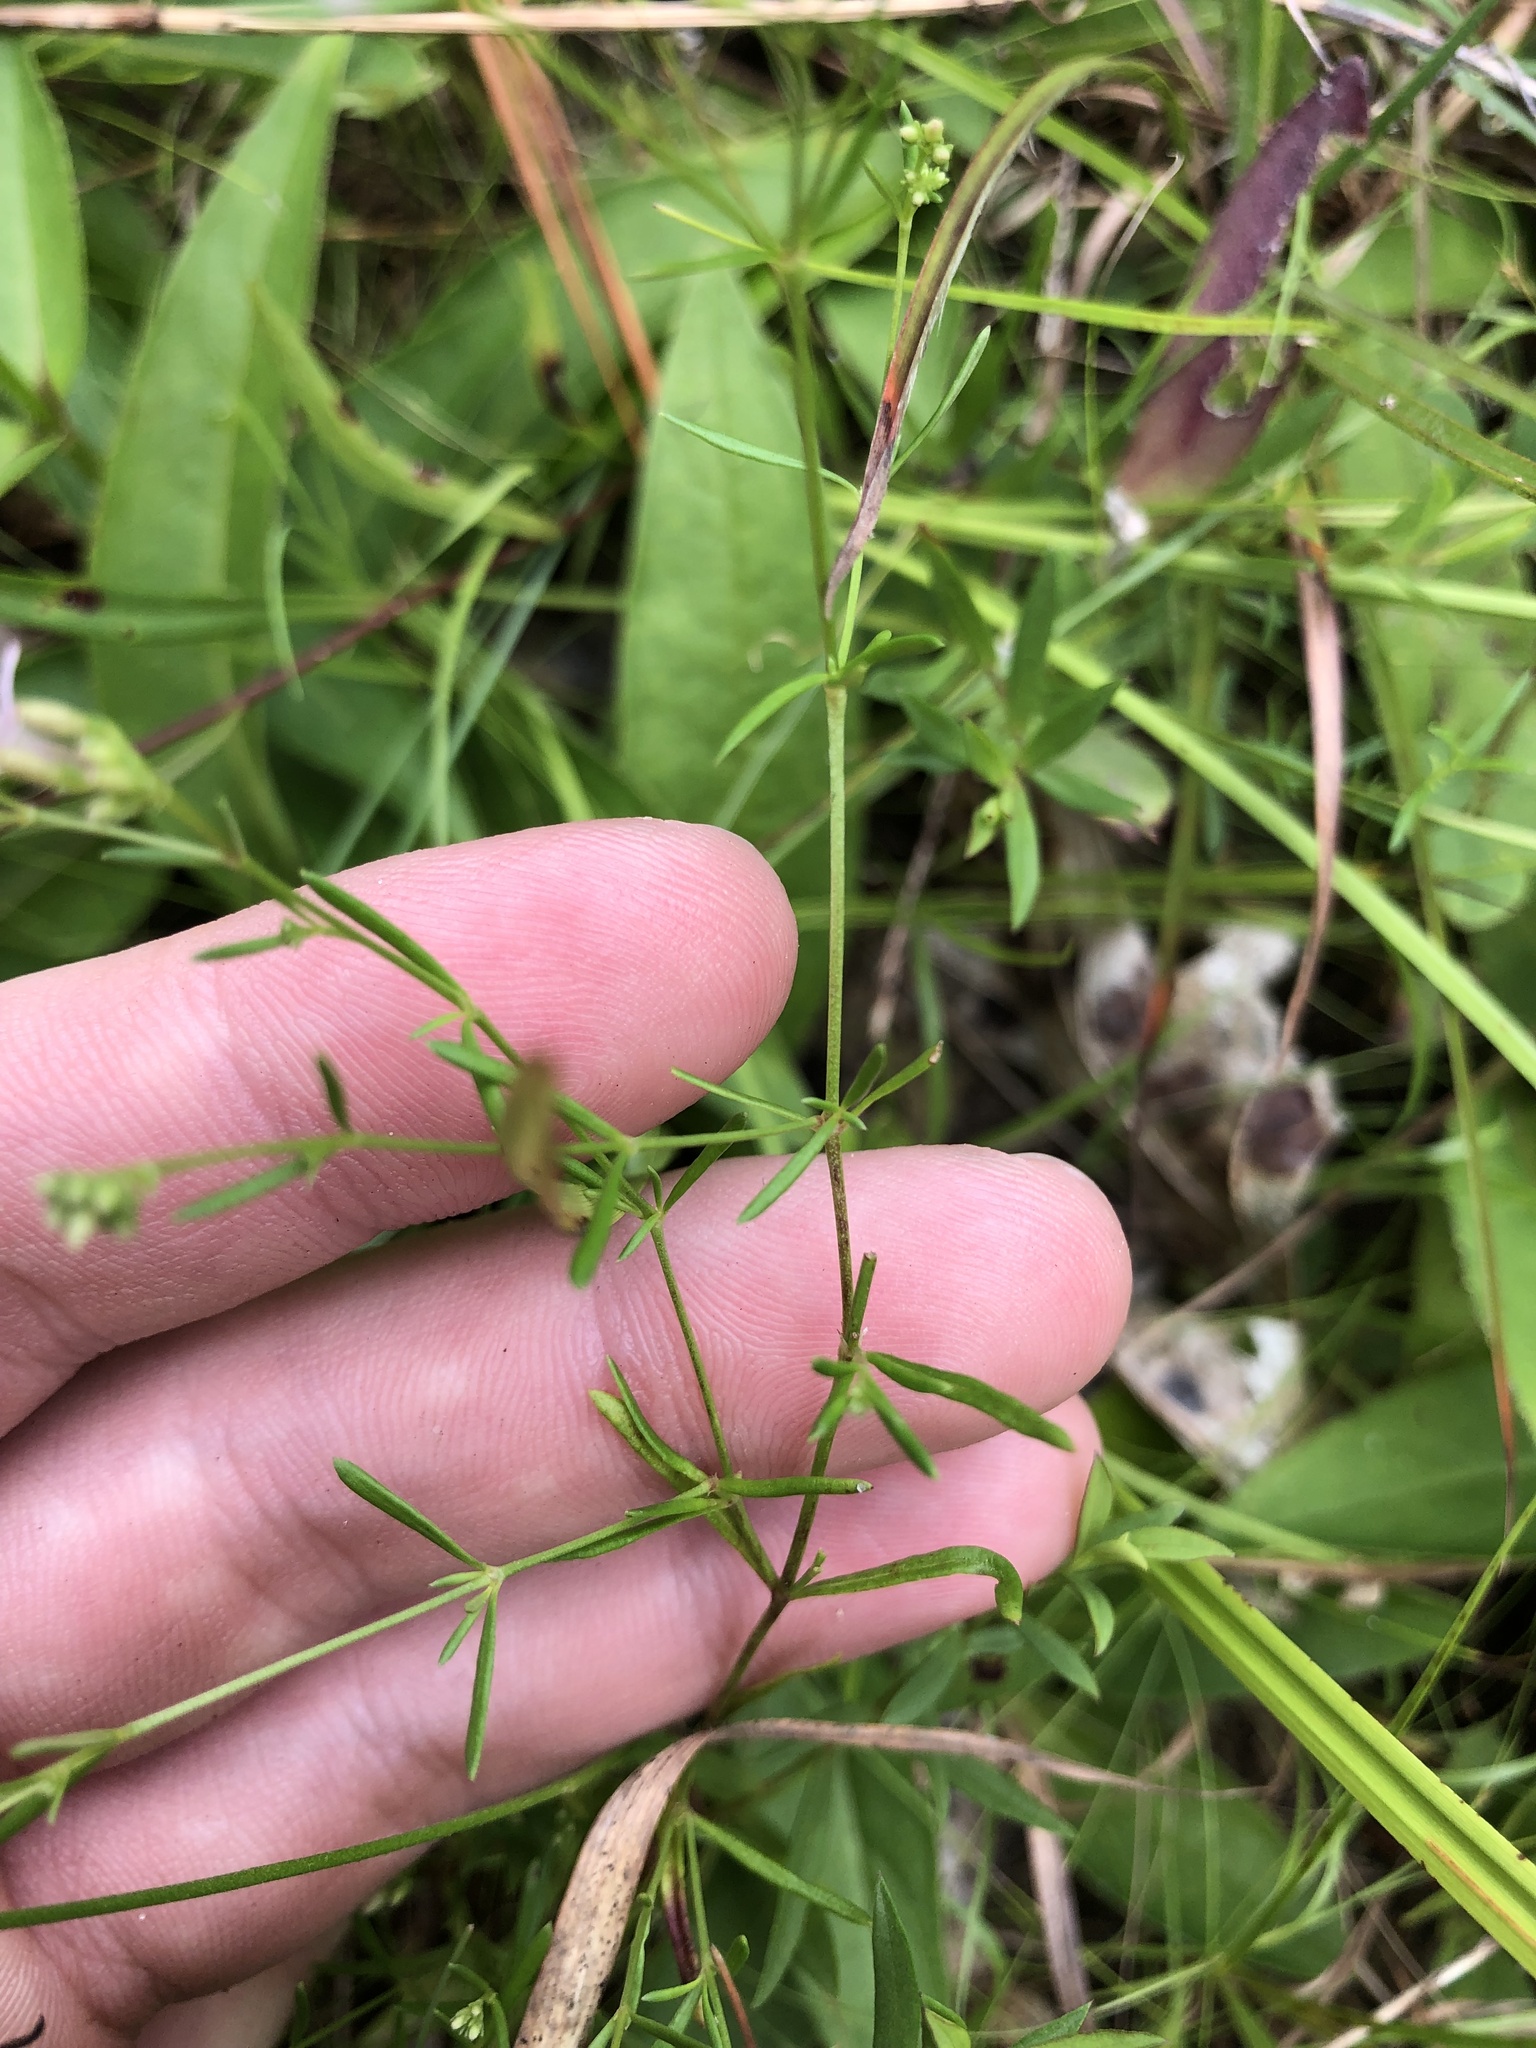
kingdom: Plantae
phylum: Tracheophyta
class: Magnoliopsida
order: Gentianales
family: Rubiaceae
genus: Stenaria
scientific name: Stenaria nigricans
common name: Diamondflowers
